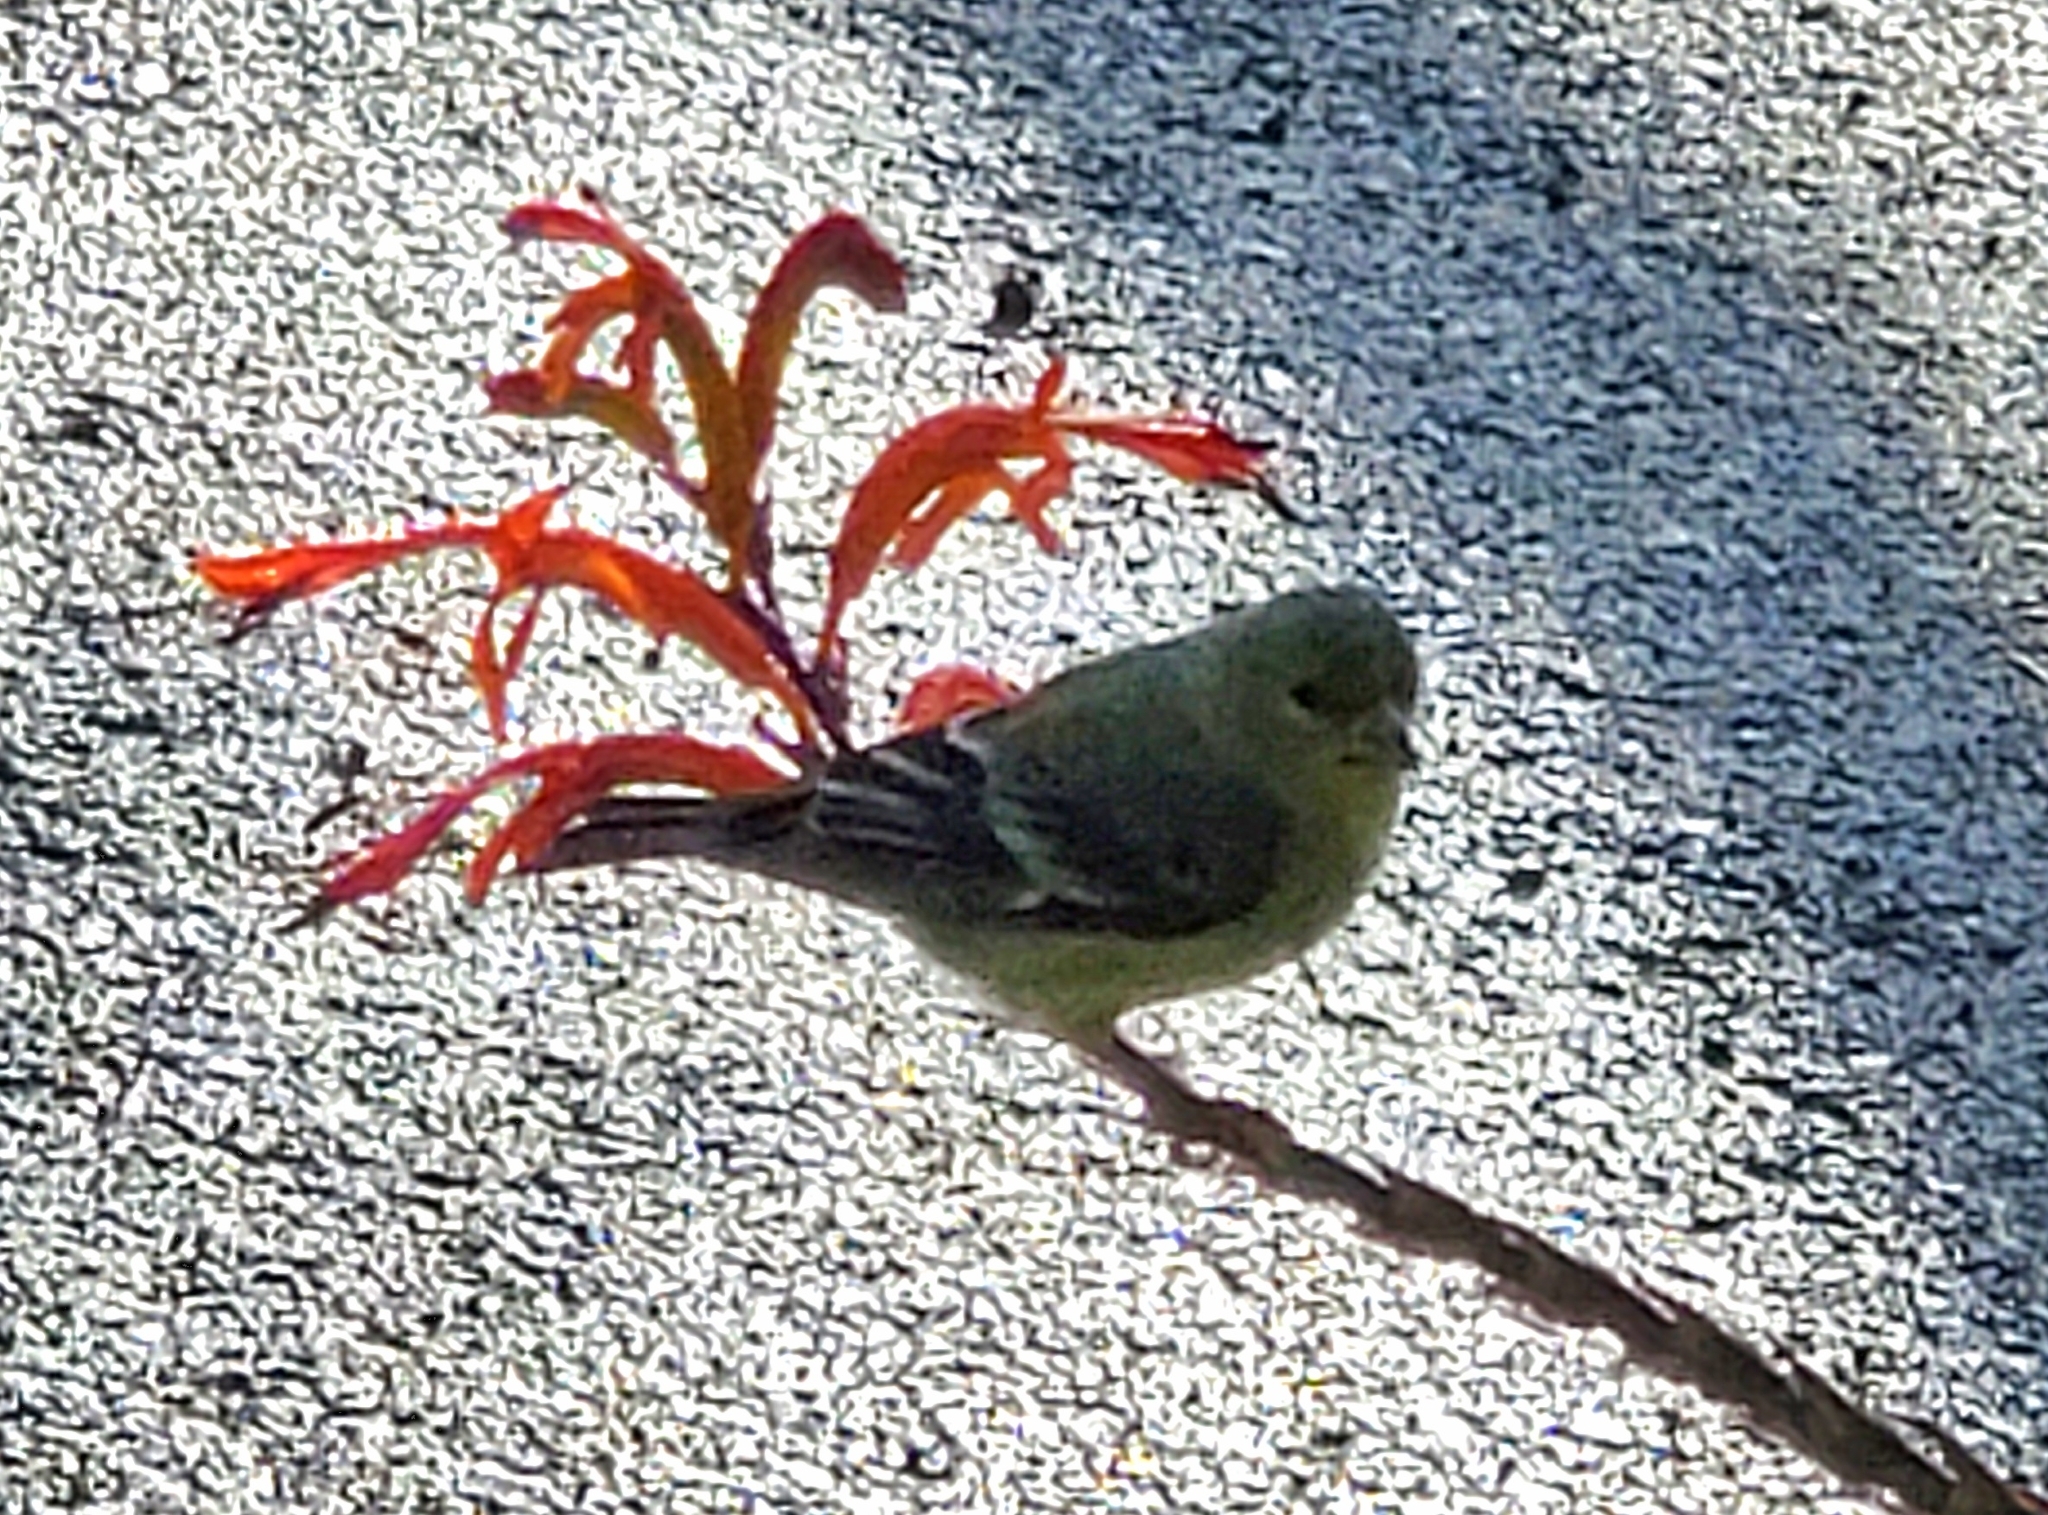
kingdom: Animalia
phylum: Chordata
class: Aves
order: Passeriformes
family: Fringillidae
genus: Spinus
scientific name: Spinus psaltria
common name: Lesser goldfinch
